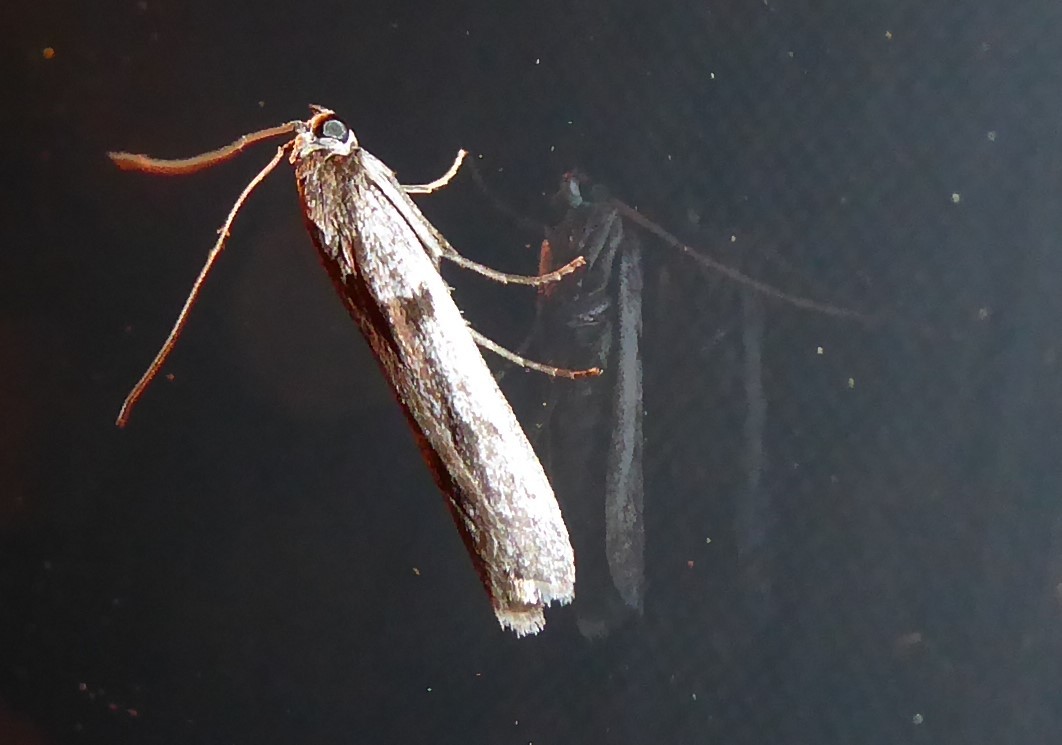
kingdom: Animalia
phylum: Arthropoda
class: Insecta
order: Lepidoptera
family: Pyralidae
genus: Patagoniodes
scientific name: Patagoniodes farinaria
